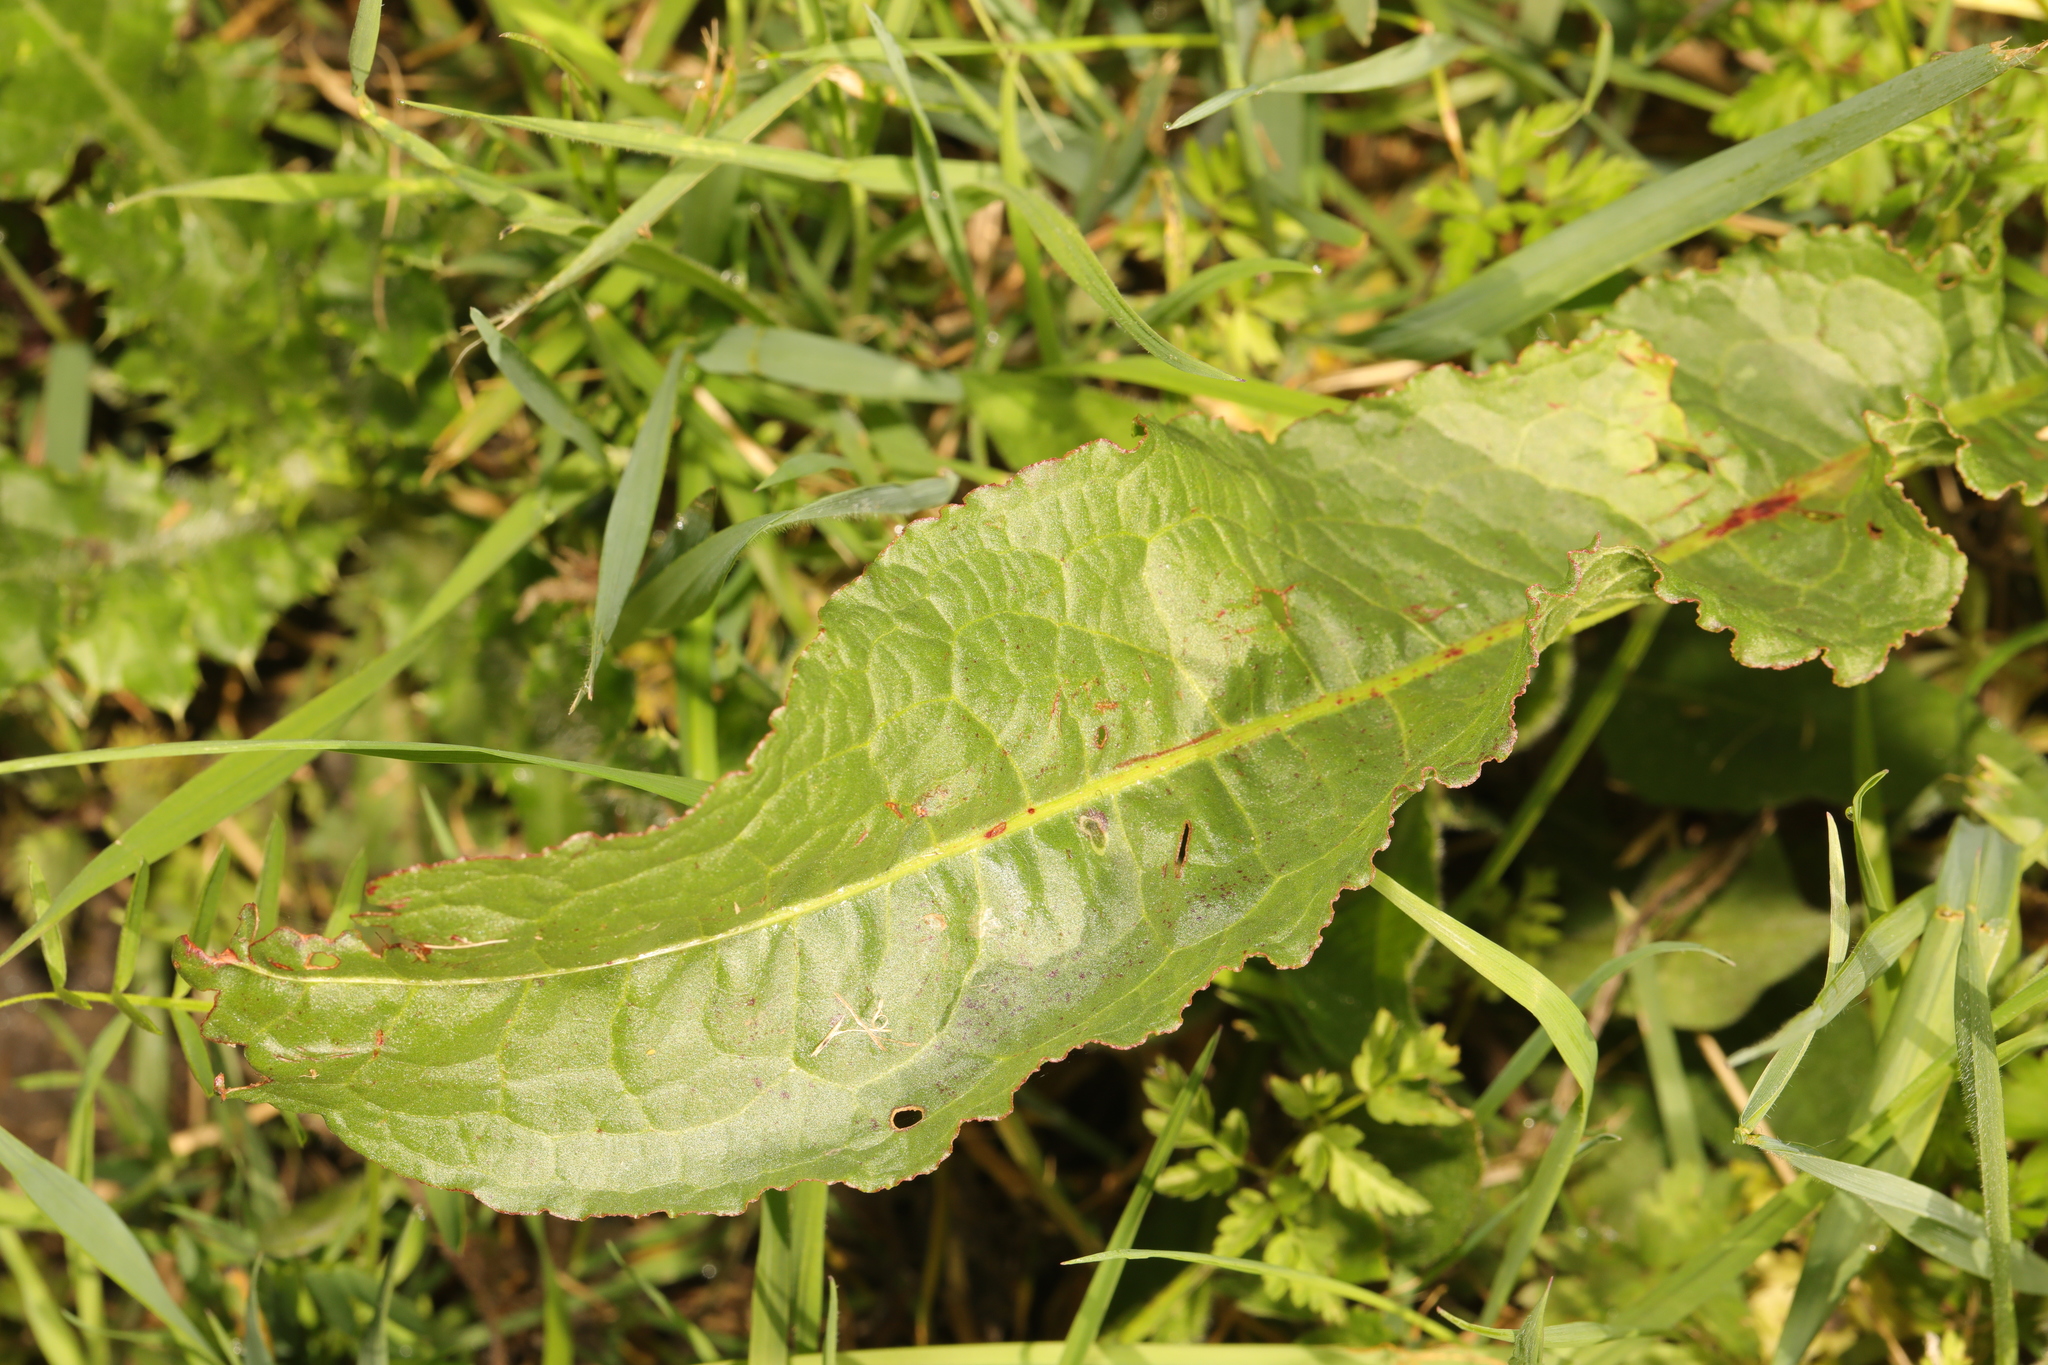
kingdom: Plantae
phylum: Tracheophyta
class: Magnoliopsida
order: Caryophyllales
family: Polygonaceae
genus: Rumex
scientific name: Rumex crispus
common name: Curled dock
